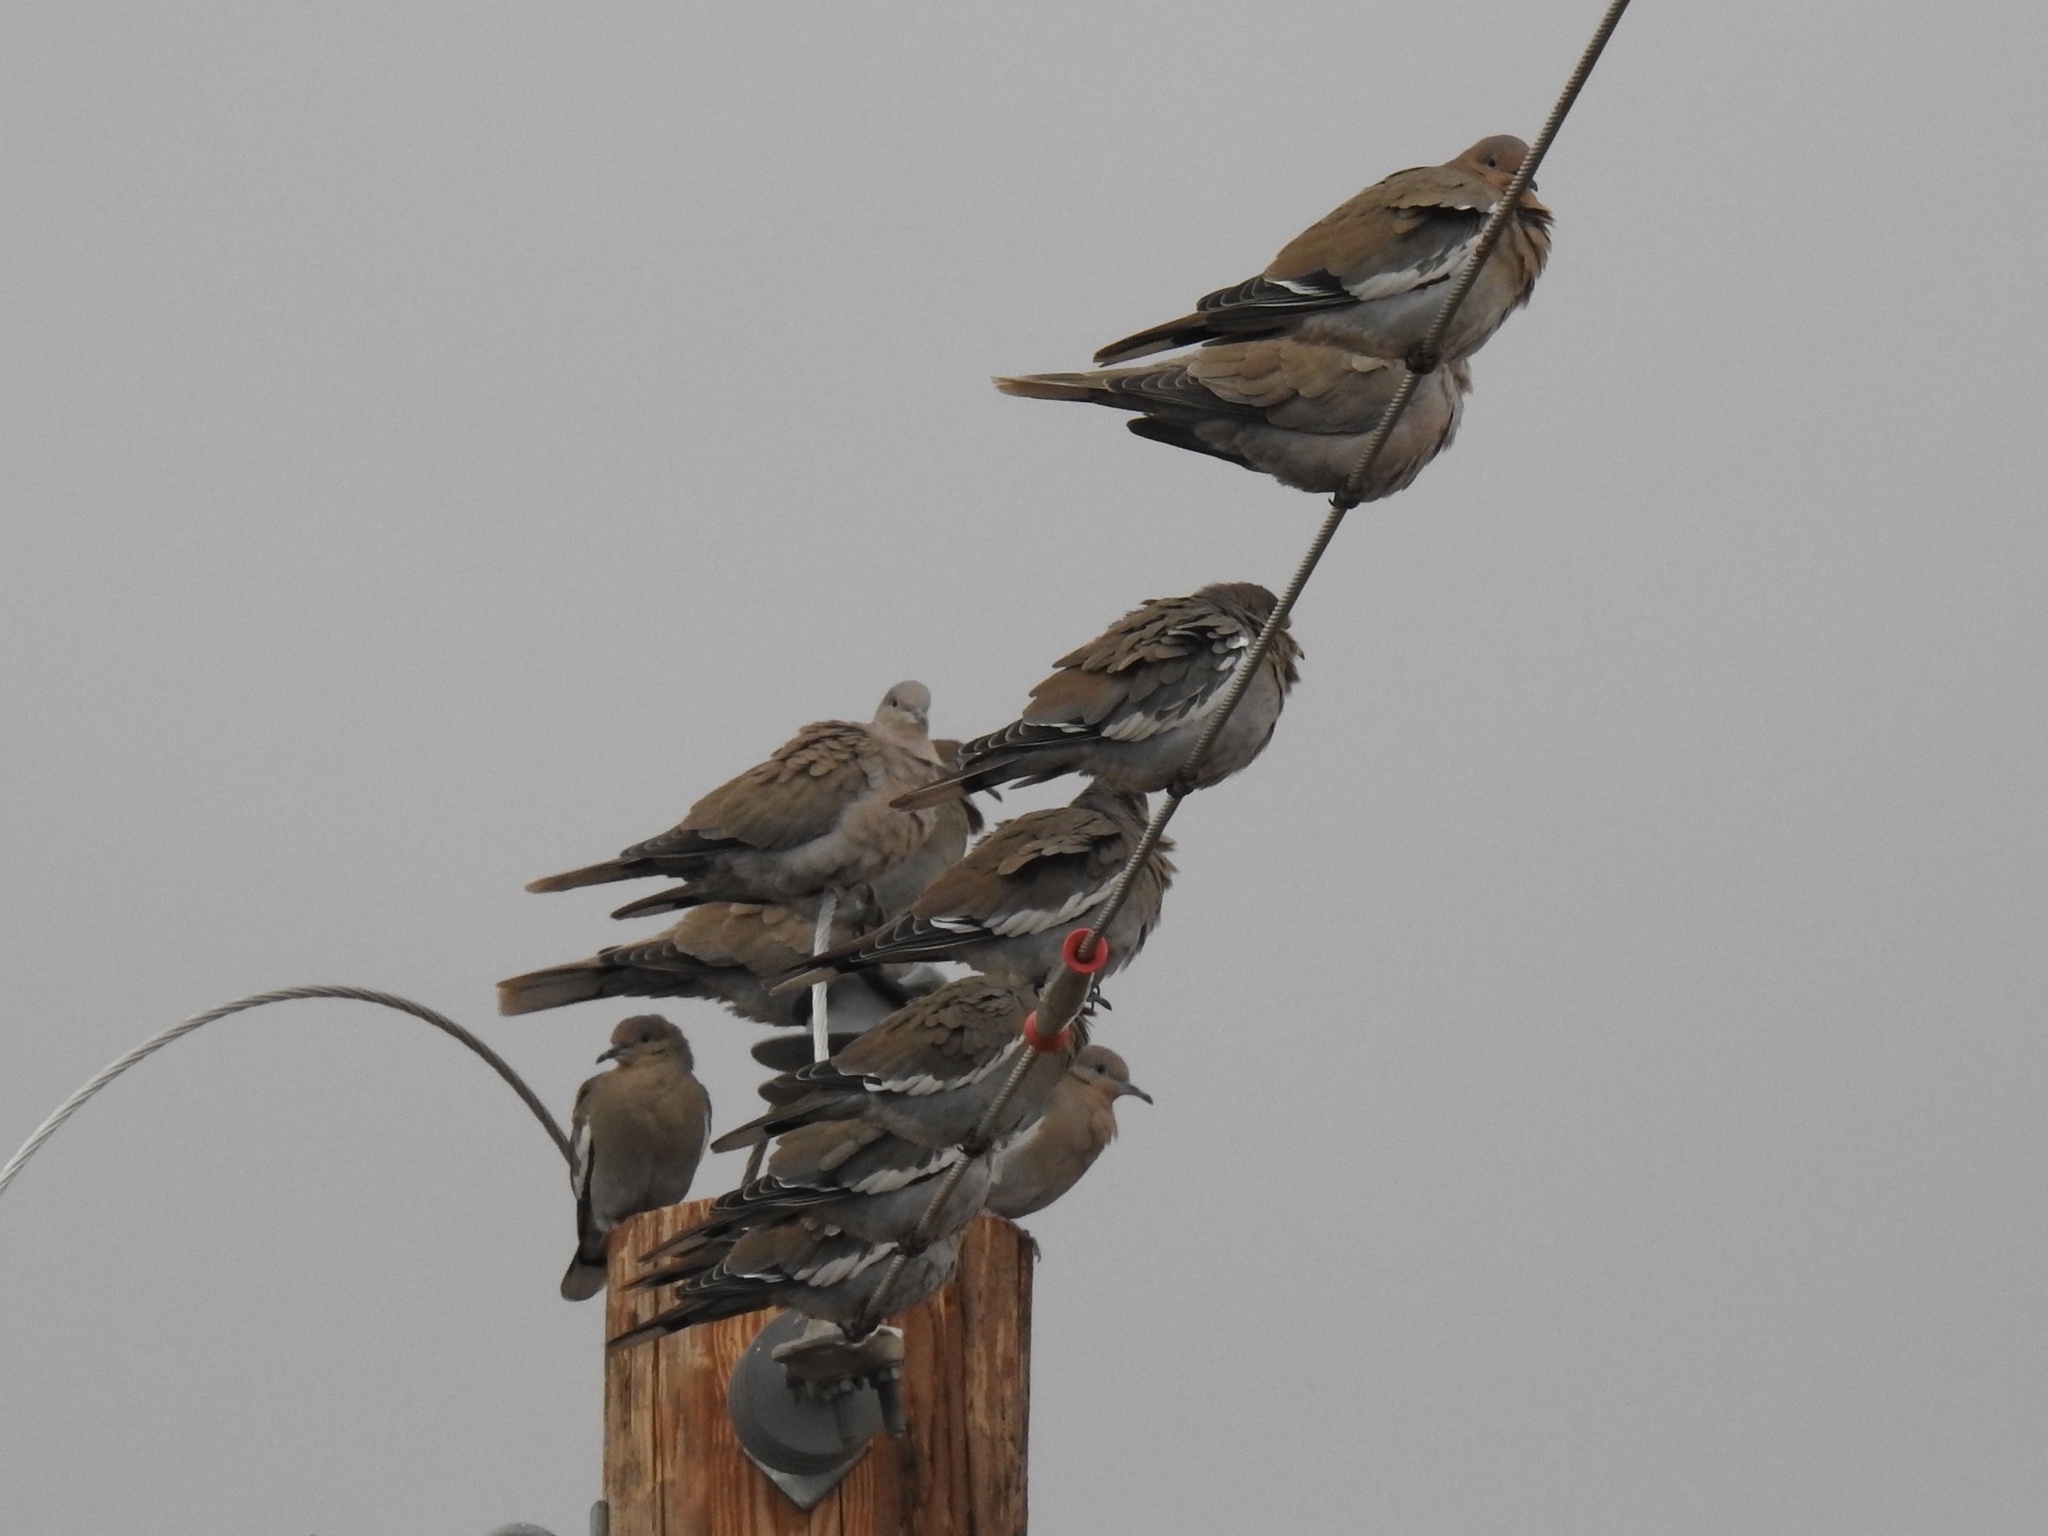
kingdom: Animalia
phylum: Chordata
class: Aves
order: Columbiformes
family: Columbidae
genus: Zenaida
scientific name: Zenaida asiatica
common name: White-winged dove
